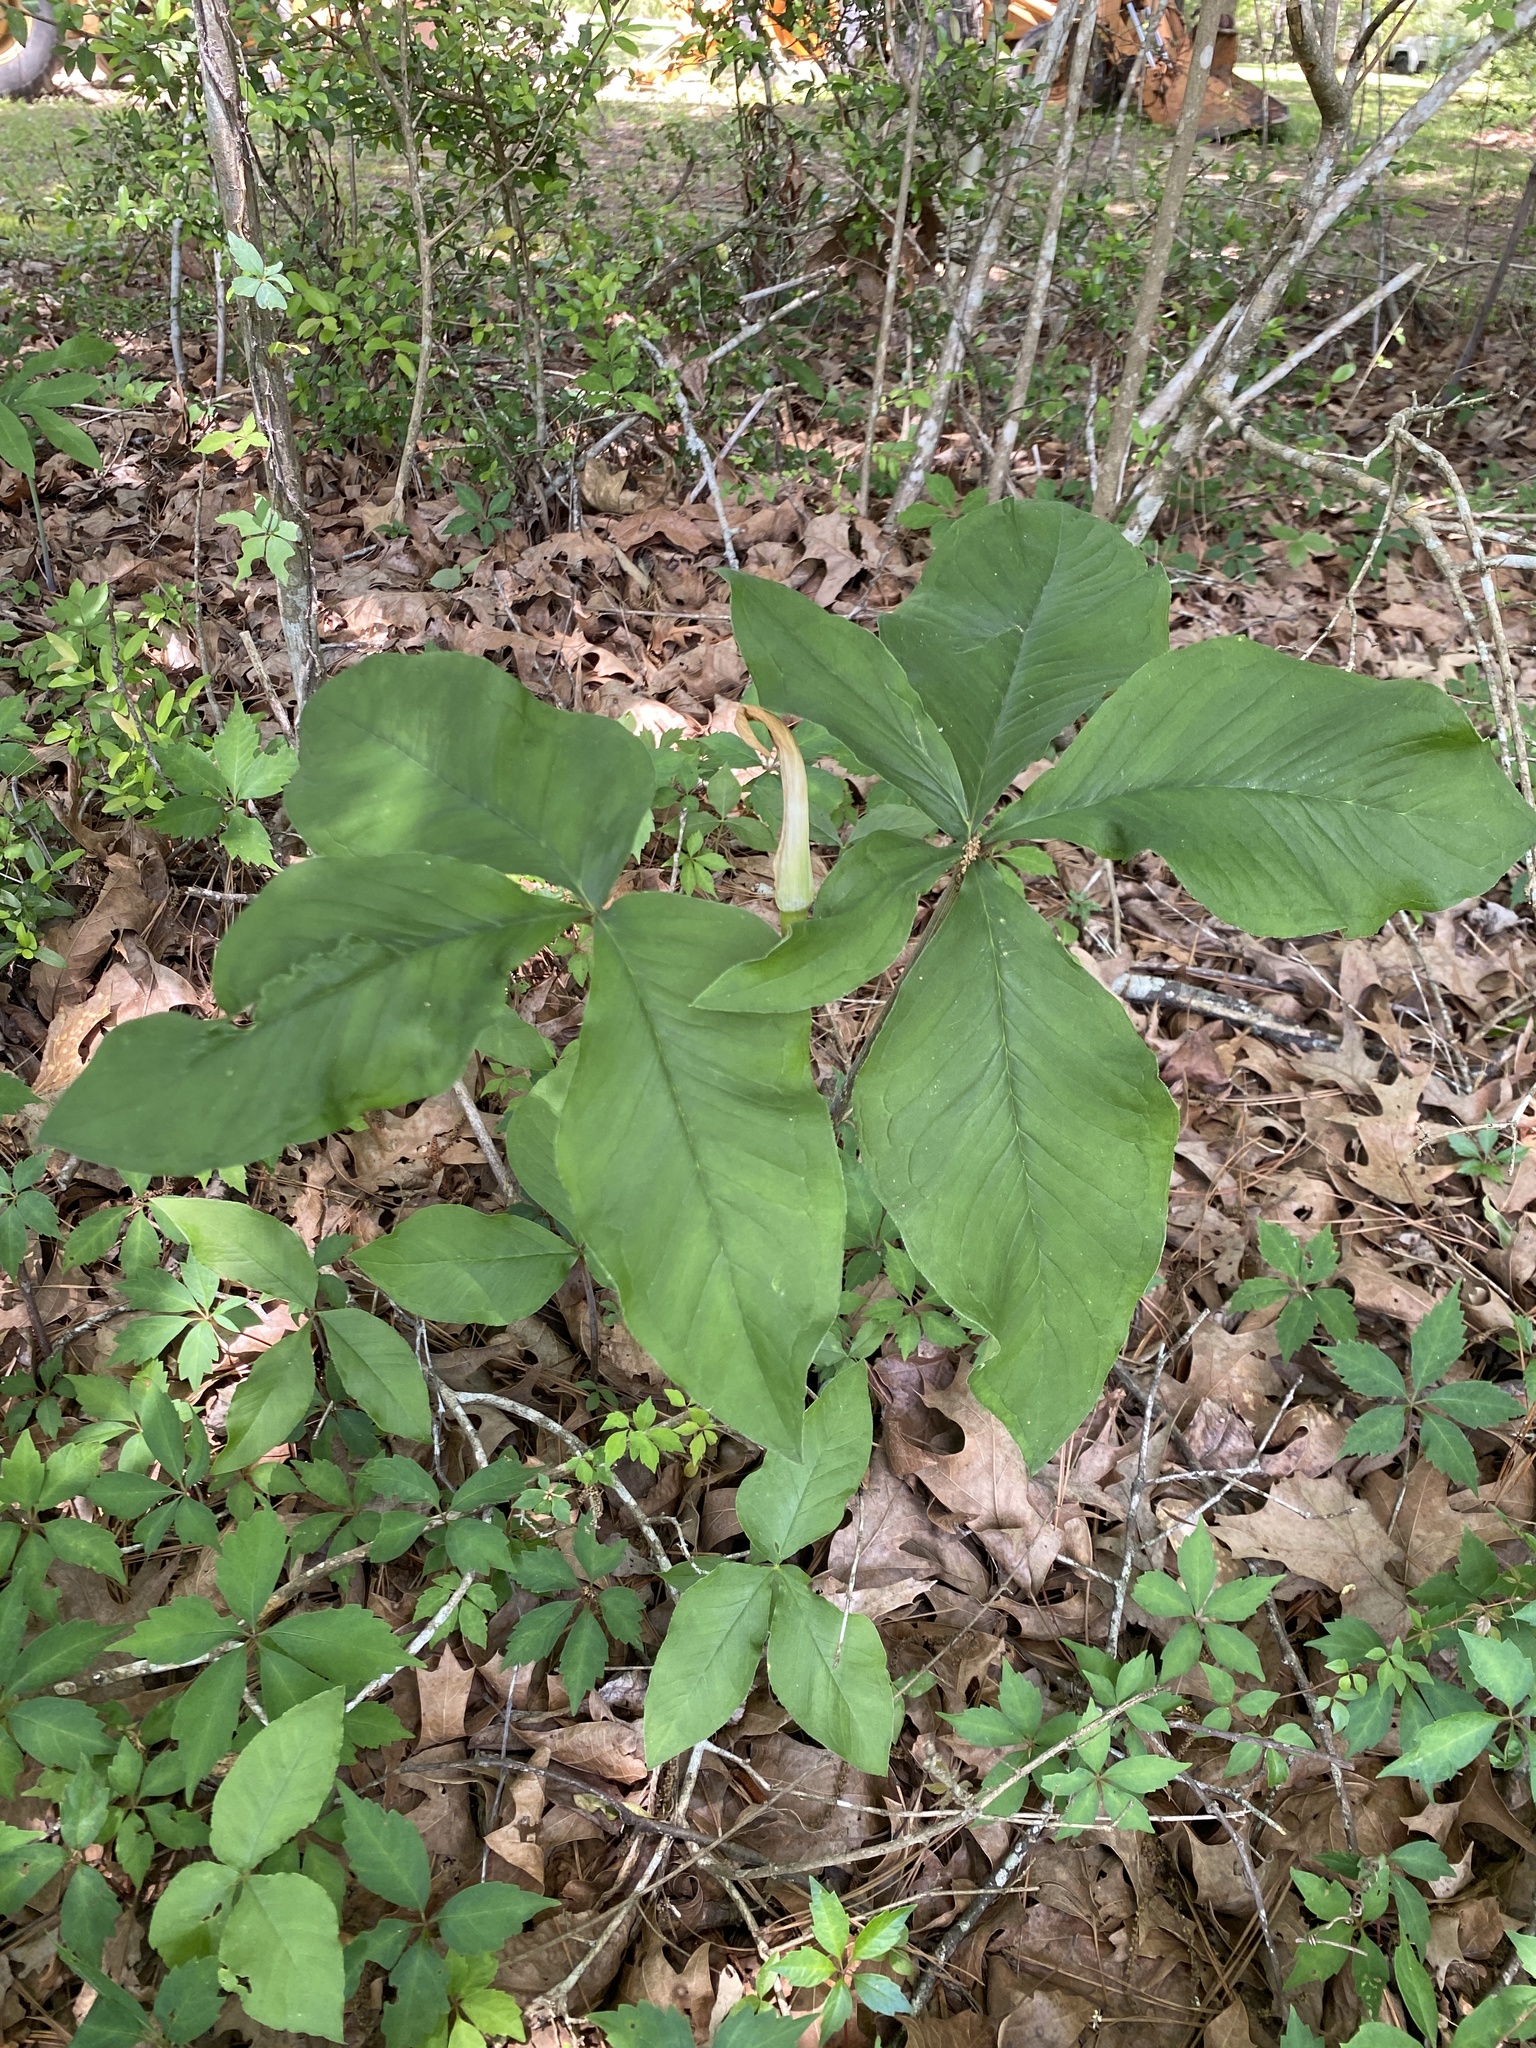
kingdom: Plantae
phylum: Tracheophyta
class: Liliopsida
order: Alismatales
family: Araceae
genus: Arisaema
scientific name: Arisaema quinatum
